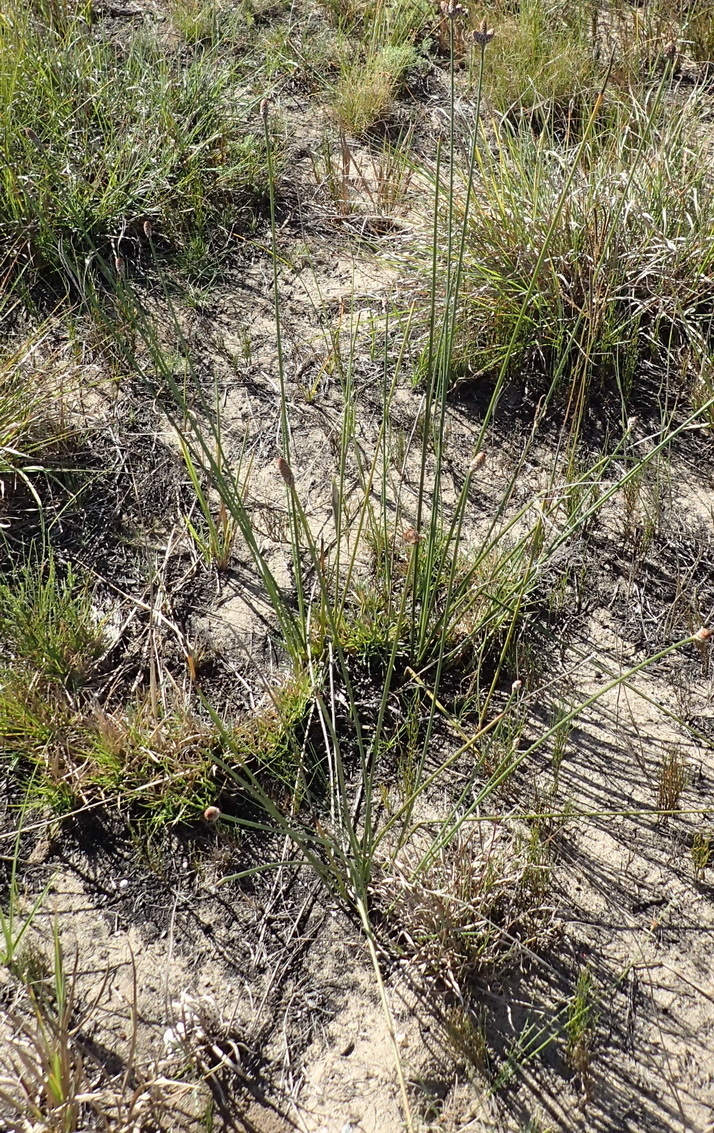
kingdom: Plantae
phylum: Tracheophyta
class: Liliopsida
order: Poales
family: Cyperaceae
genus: Hellmuthia
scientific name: Hellmuthia membranacea
